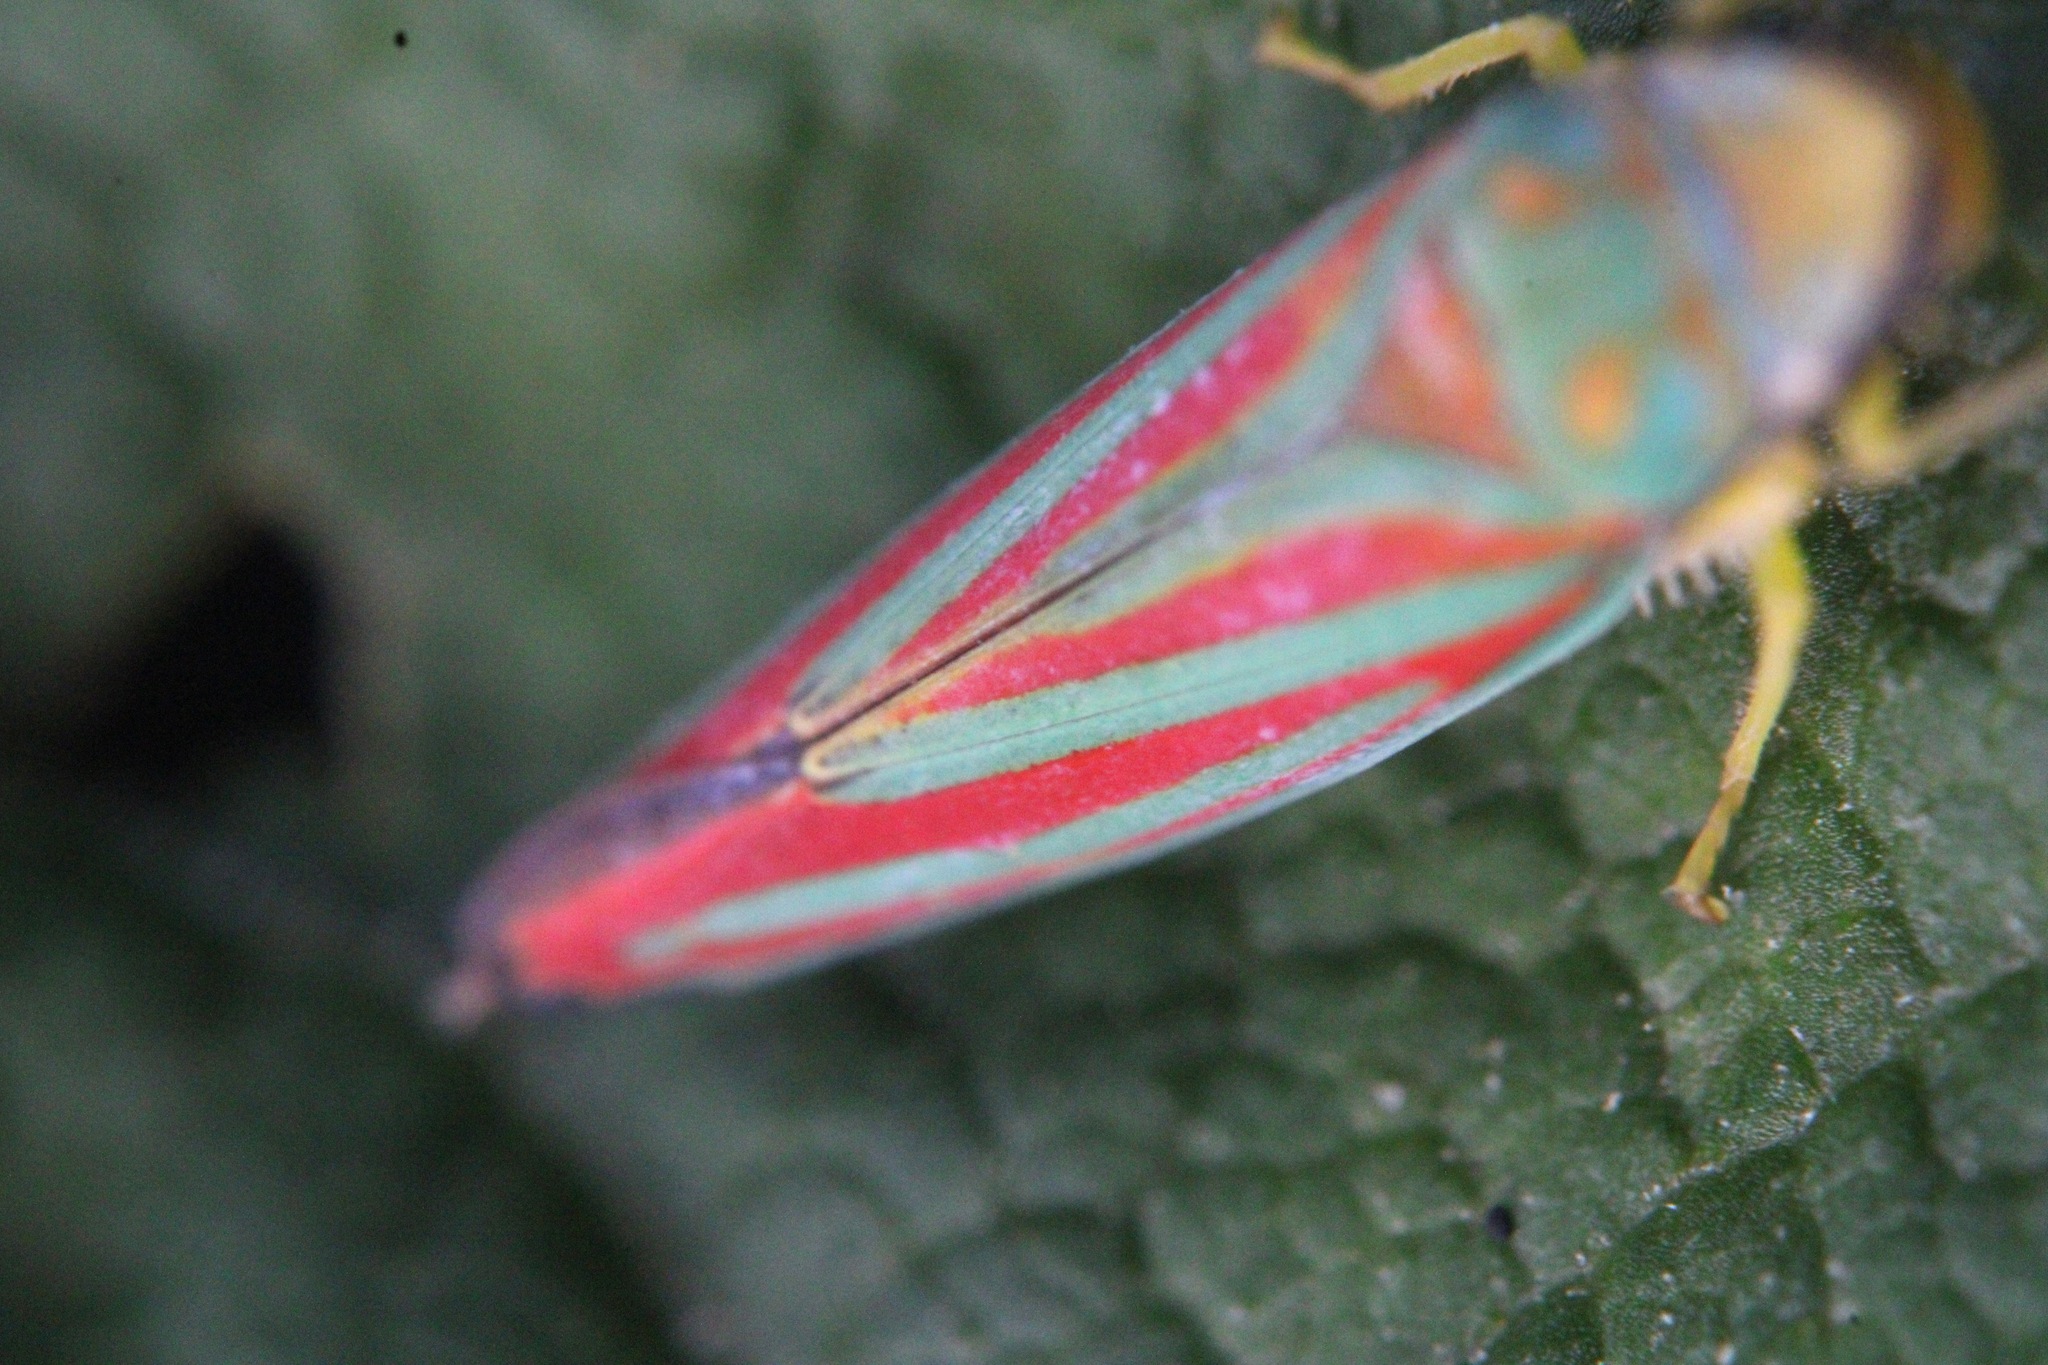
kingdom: Animalia
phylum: Arthropoda
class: Insecta
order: Hemiptera
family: Cicadellidae
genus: Graphocephala
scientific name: Graphocephala coccinea
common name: Candy-striped leafhopper
